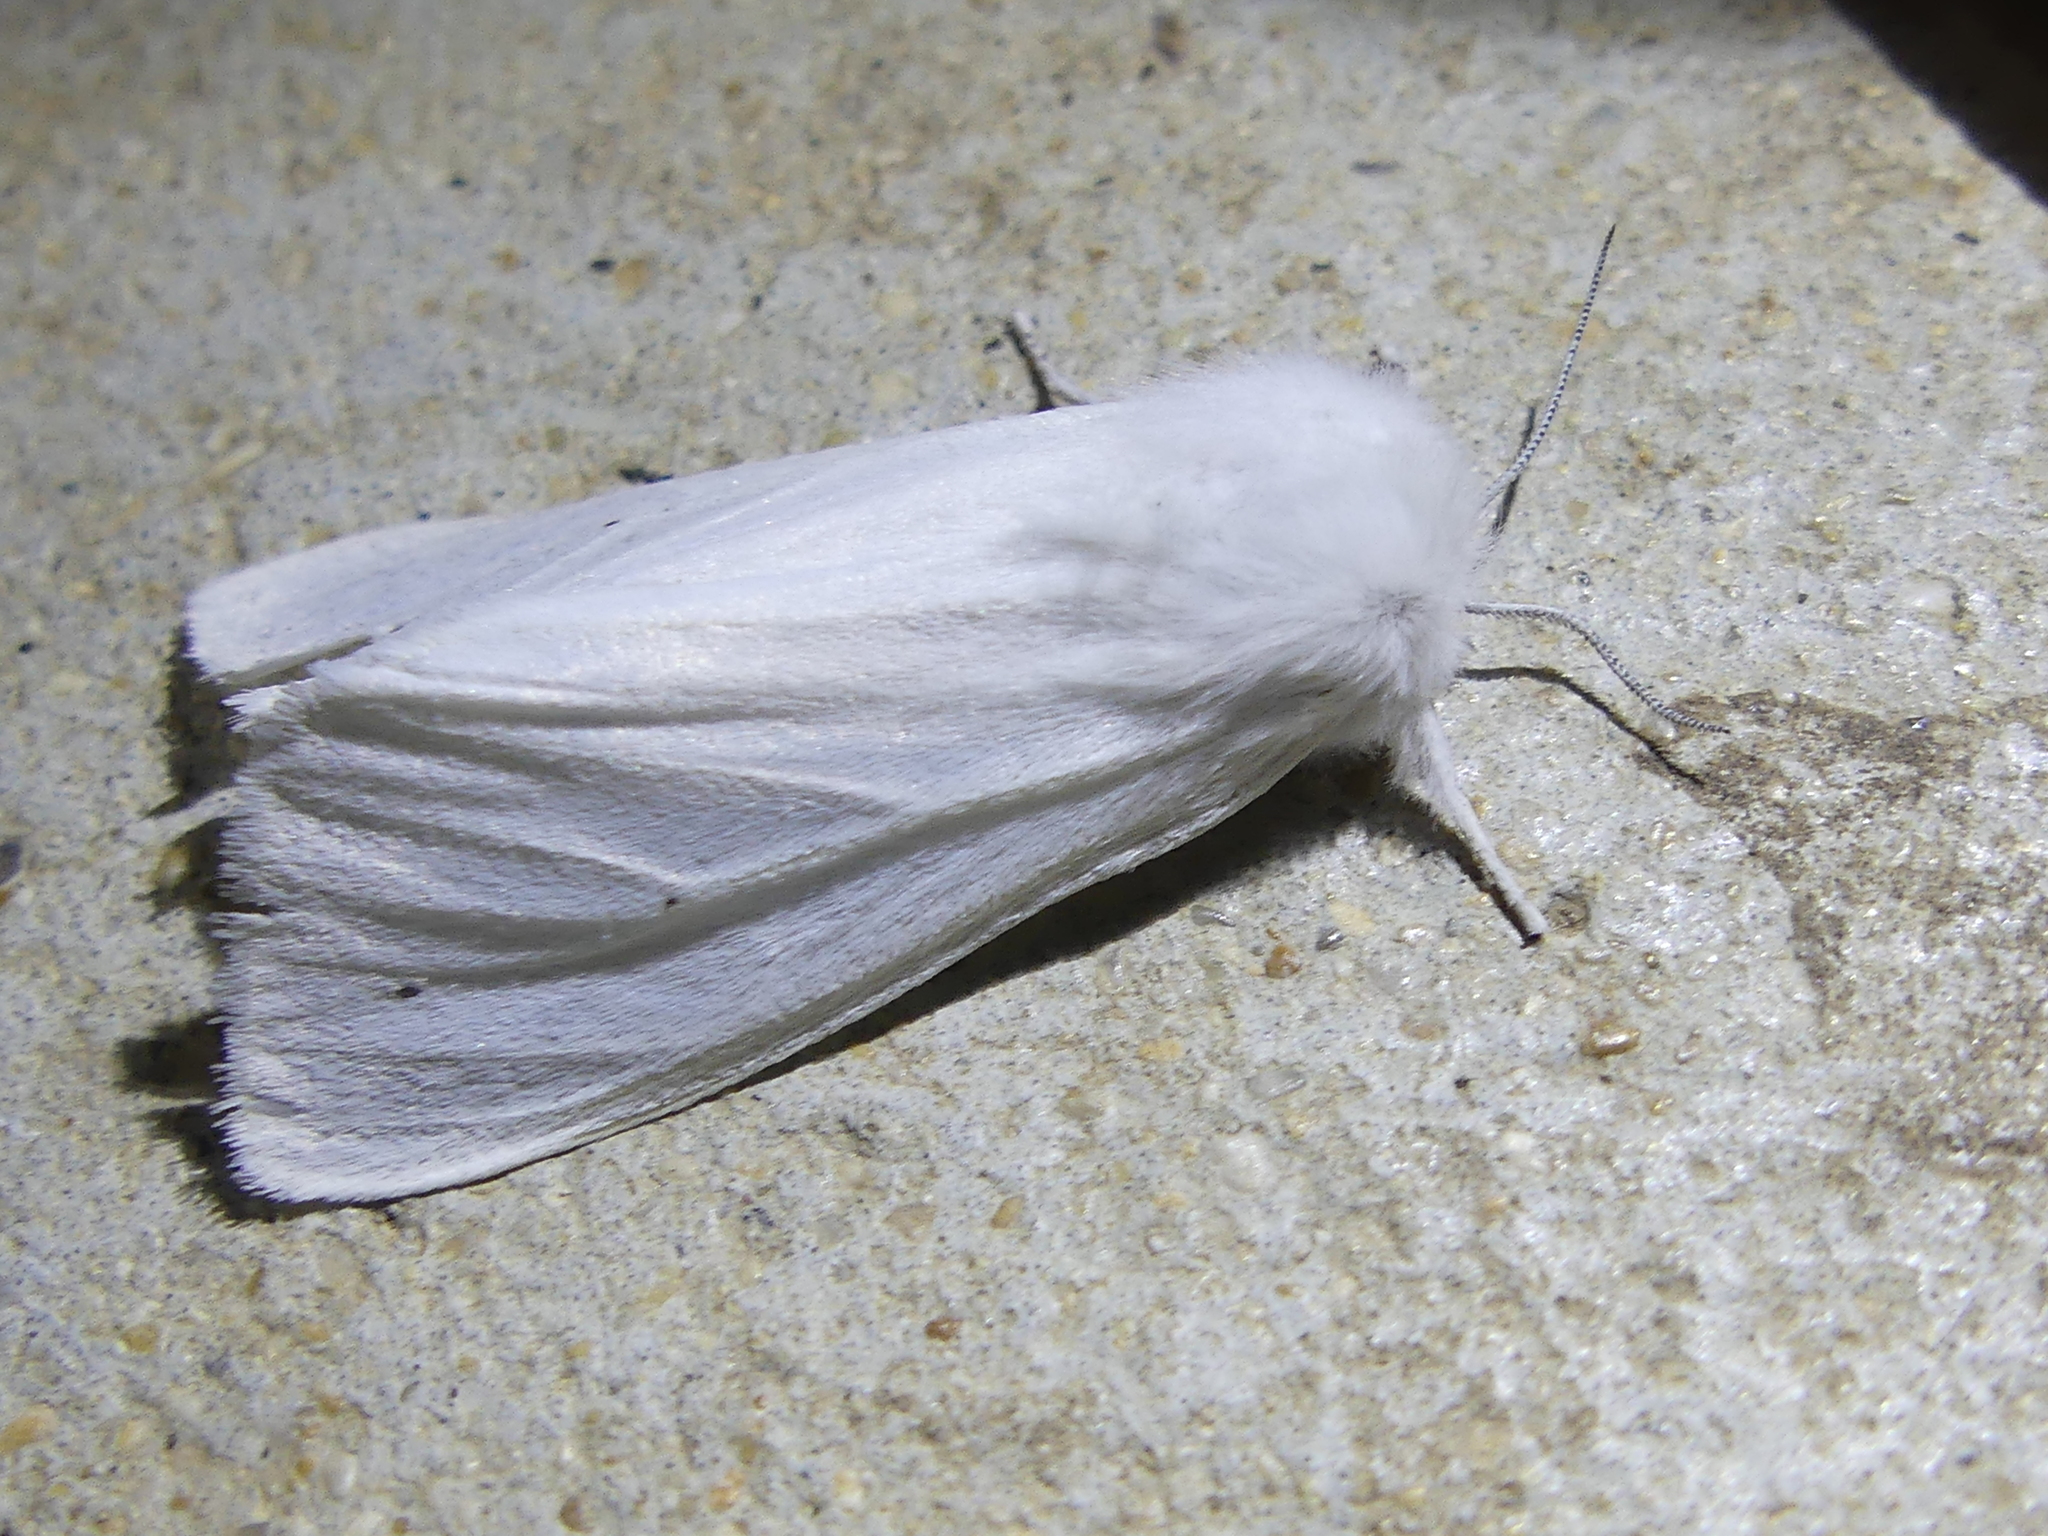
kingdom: Animalia
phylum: Arthropoda
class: Insecta
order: Lepidoptera
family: Erebidae
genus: Spilosoma
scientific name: Spilosoma virginica
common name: Virginia tiger moth
